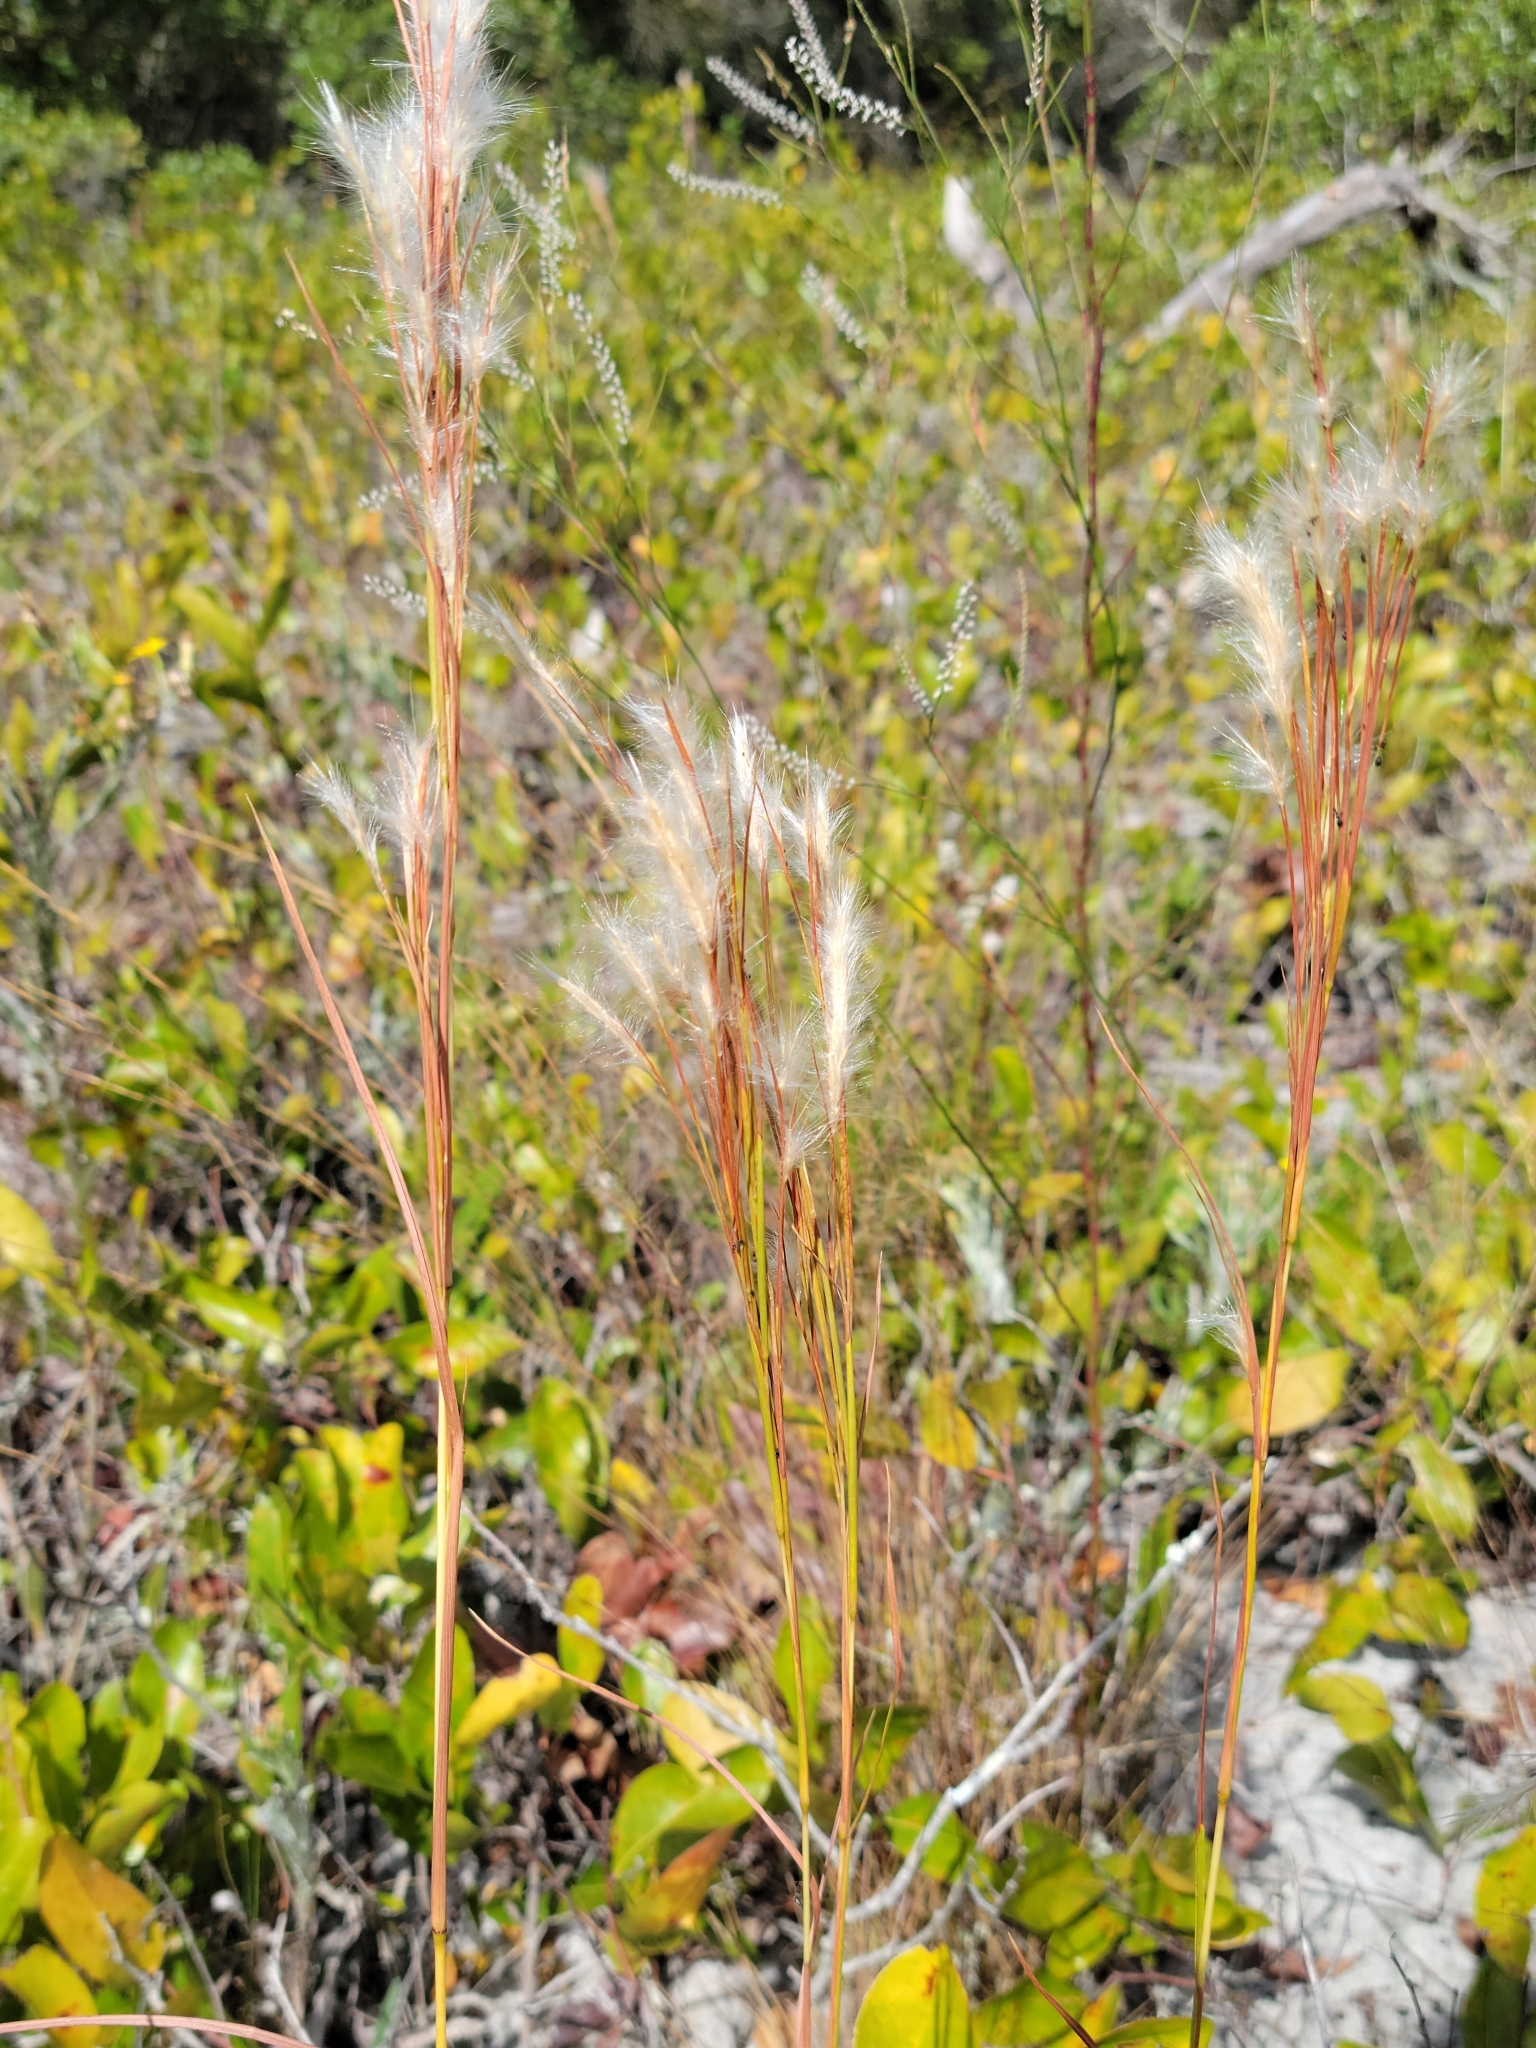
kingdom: Plantae
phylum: Tracheophyta
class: Liliopsida
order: Poales
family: Poaceae
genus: Andropogon
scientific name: Andropogon floridanus
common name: Florida bluestem
